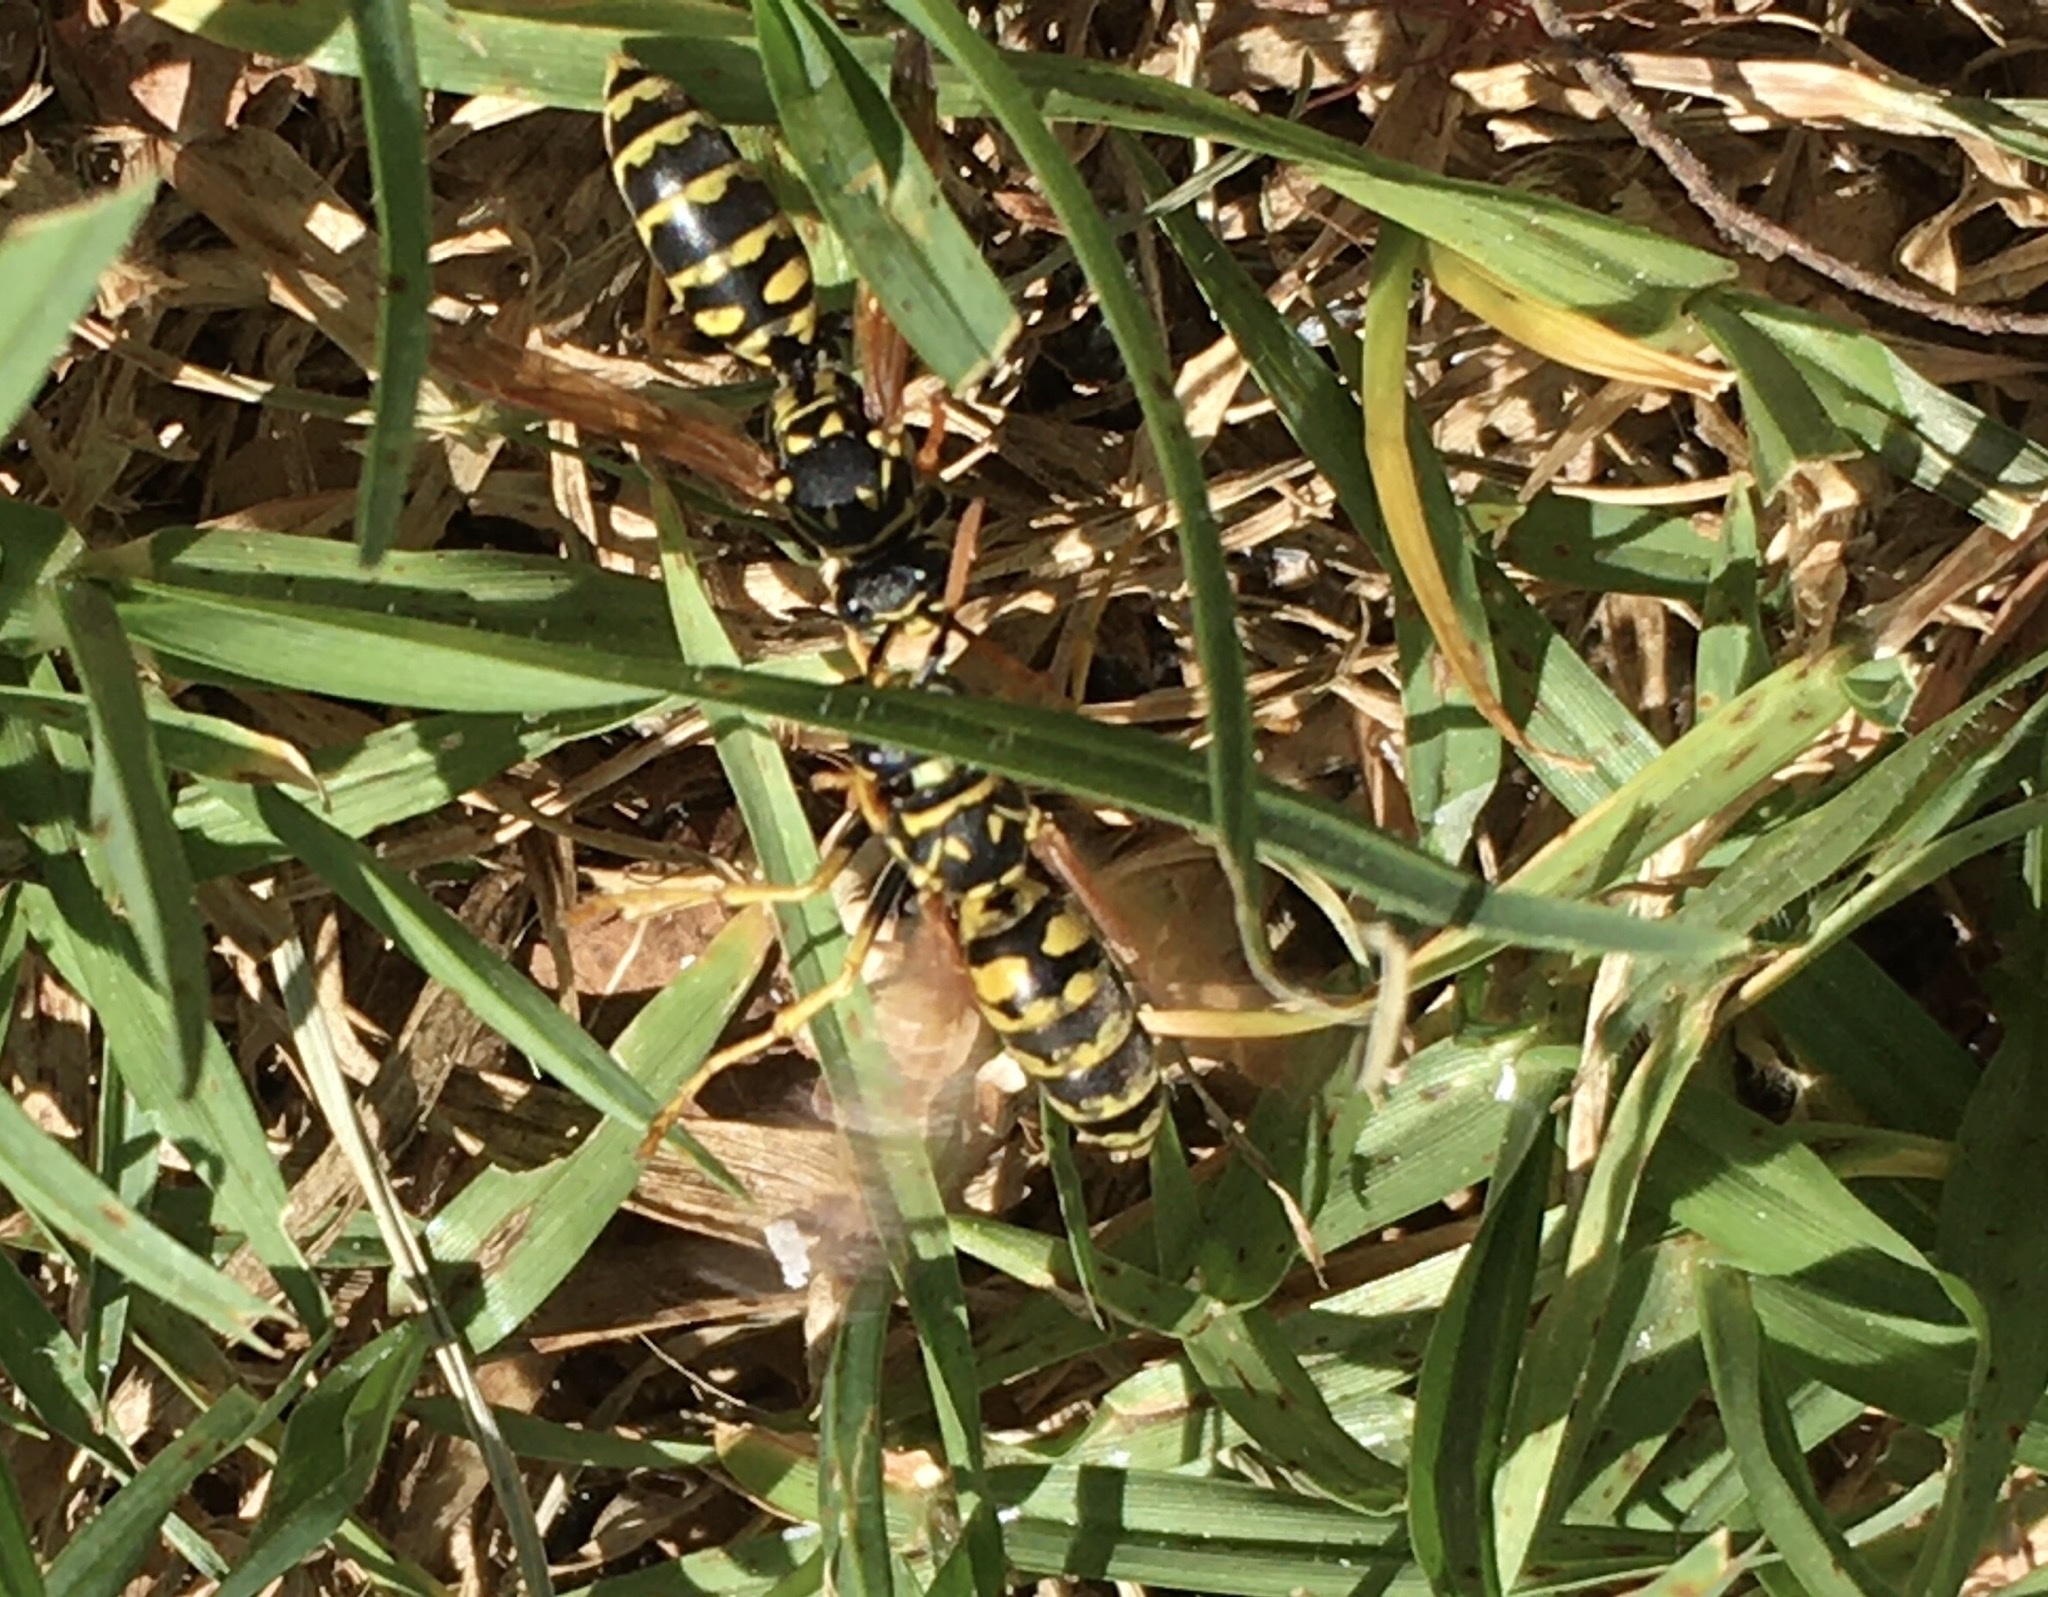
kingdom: Animalia
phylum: Arthropoda
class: Insecta
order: Hymenoptera
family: Eumenidae
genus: Polistes
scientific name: Polistes dominula
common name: Paper wasp
